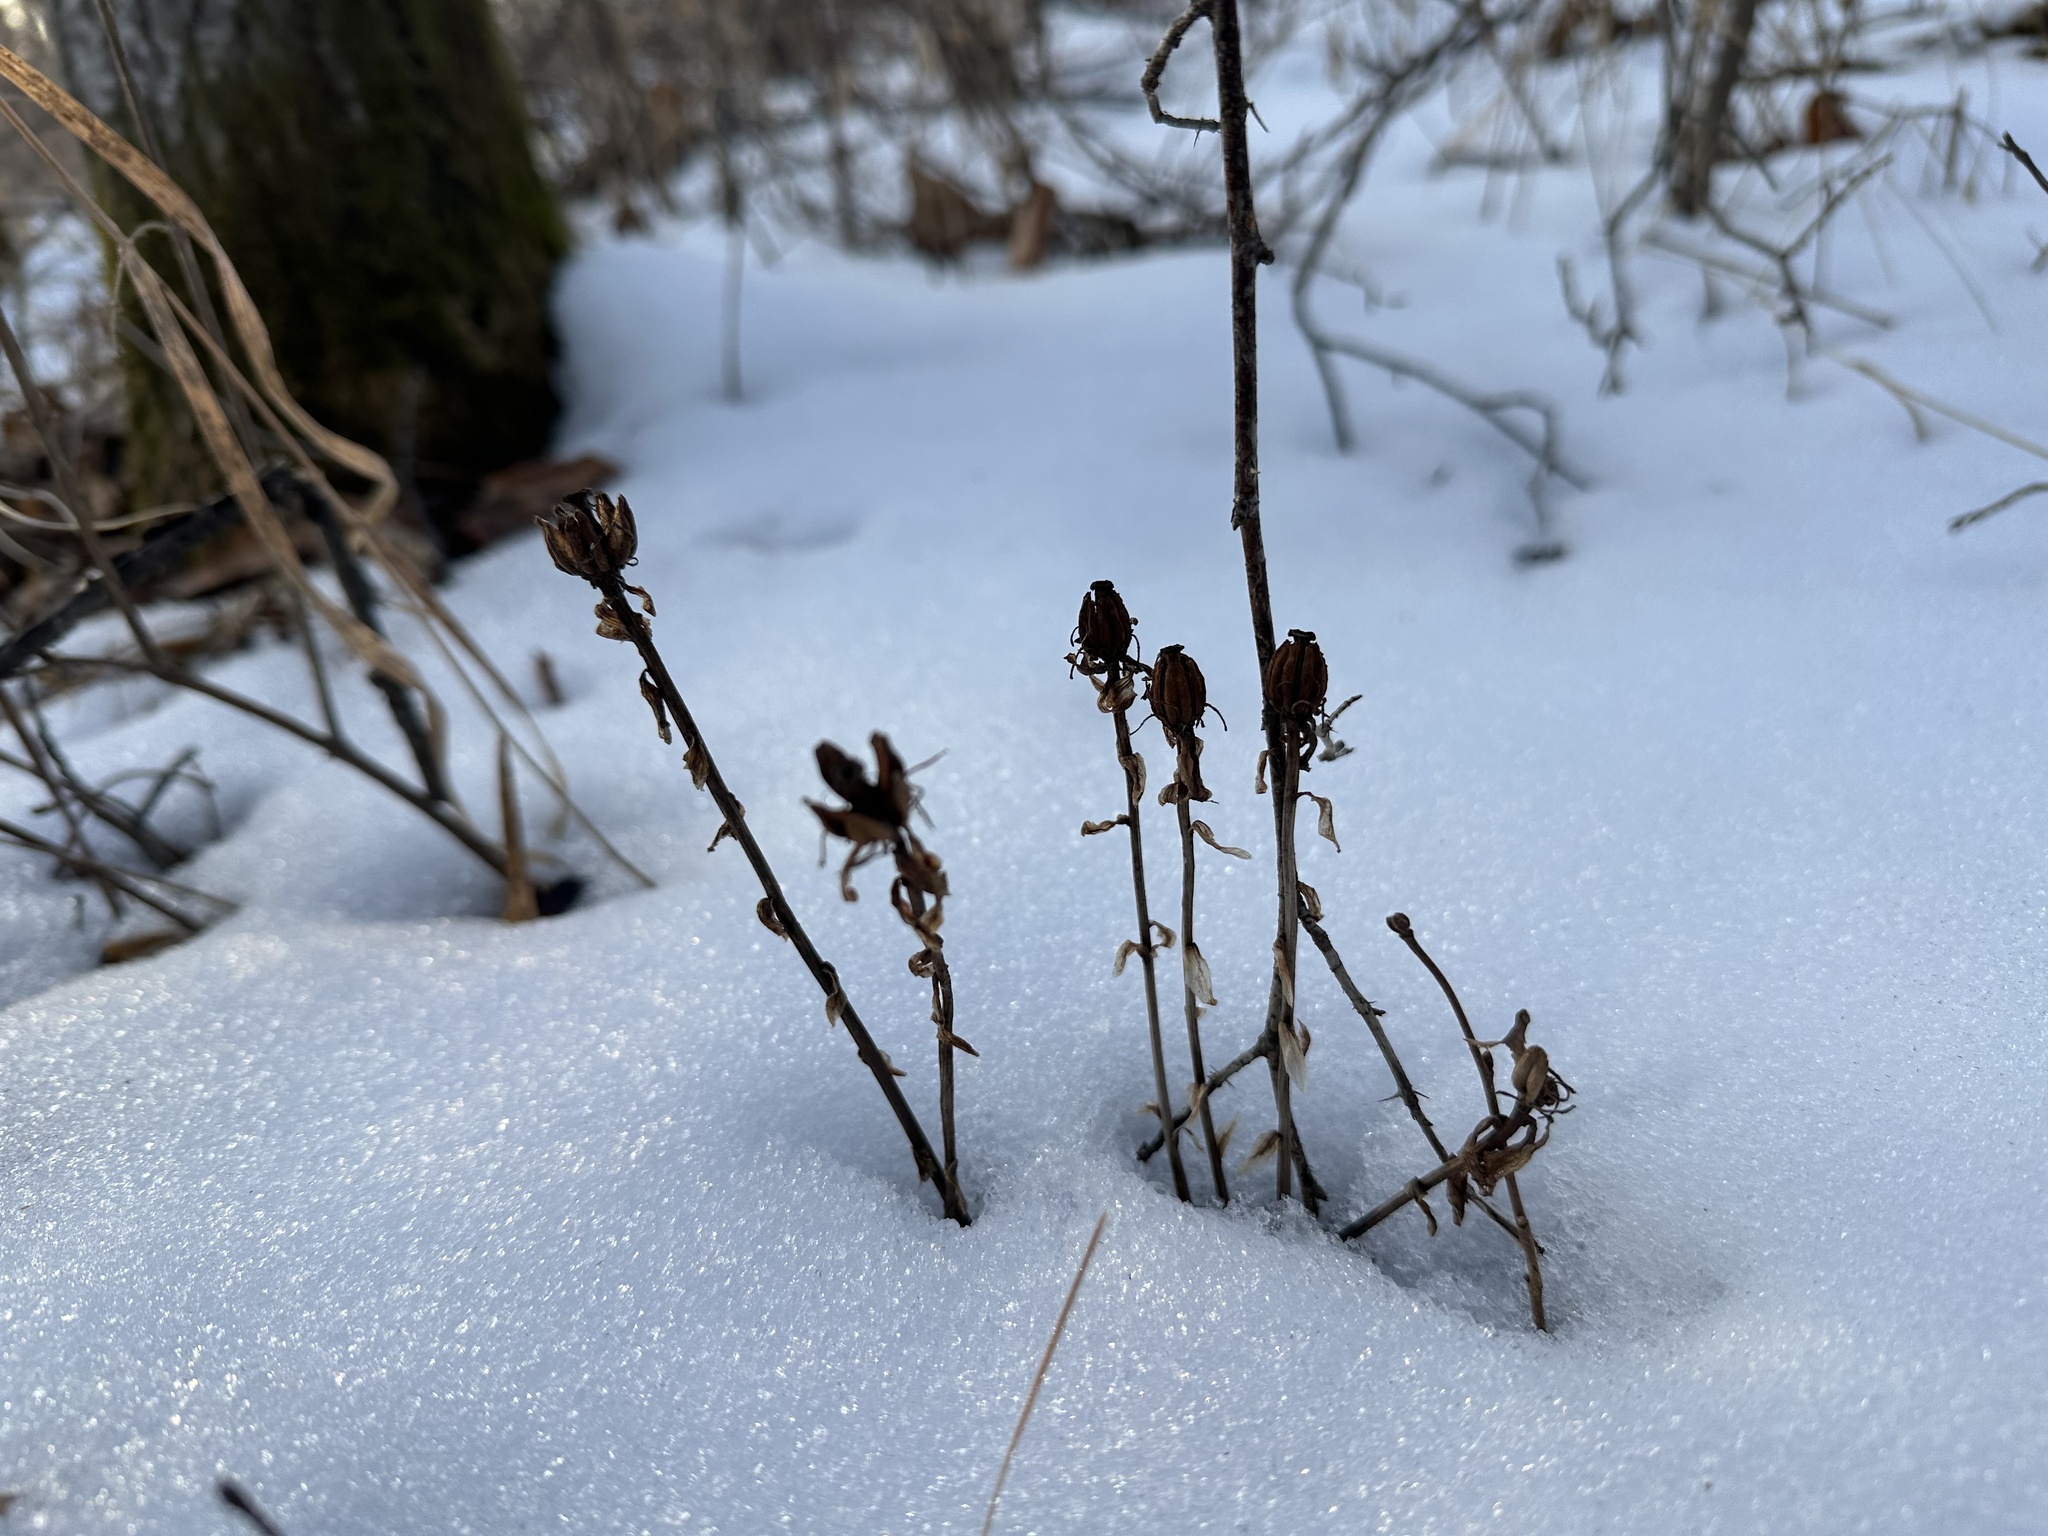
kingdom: Plantae
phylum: Tracheophyta
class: Magnoliopsida
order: Ericales
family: Ericaceae
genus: Monotropa
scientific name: Monotropa uniflora
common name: Convulsion root
